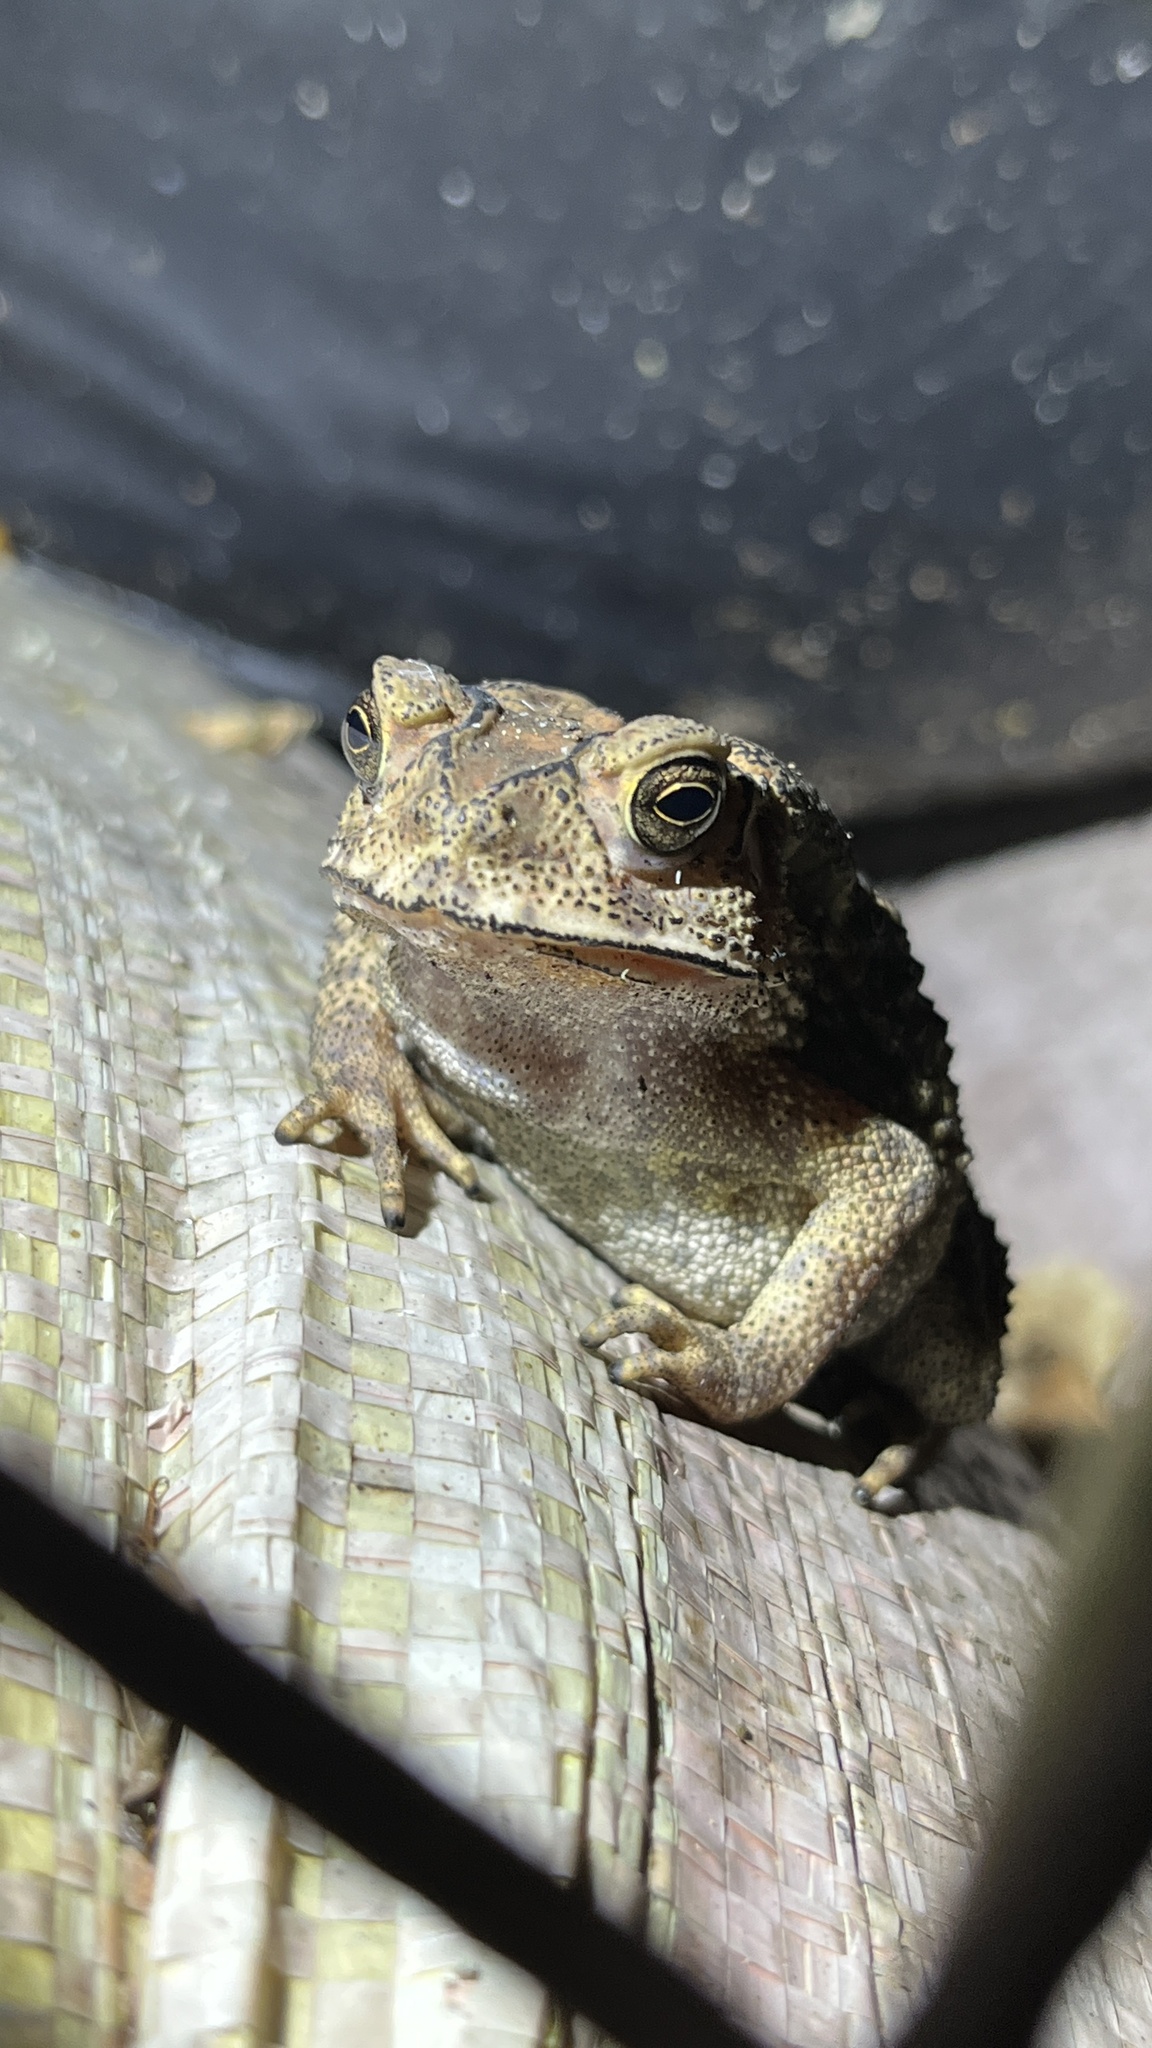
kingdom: Animalia
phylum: Chordata
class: Amphibia
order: Anura
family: Bufonidae
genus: Duttaphrynus
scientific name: Duttaphrynus melanostictus
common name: Common sunda toad
